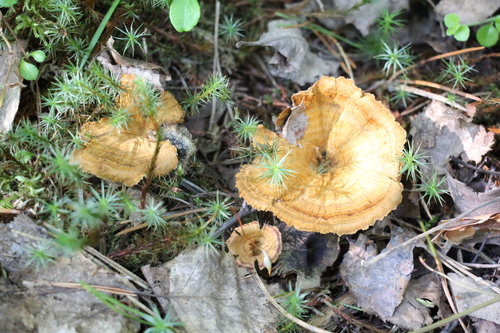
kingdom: Fungi
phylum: Basidiomycota
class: Agaricomycetes
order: Hymenochaetales
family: Hymenochaetaceae
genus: Coltricia
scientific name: Coltricia perennis
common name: Tiger's eye
